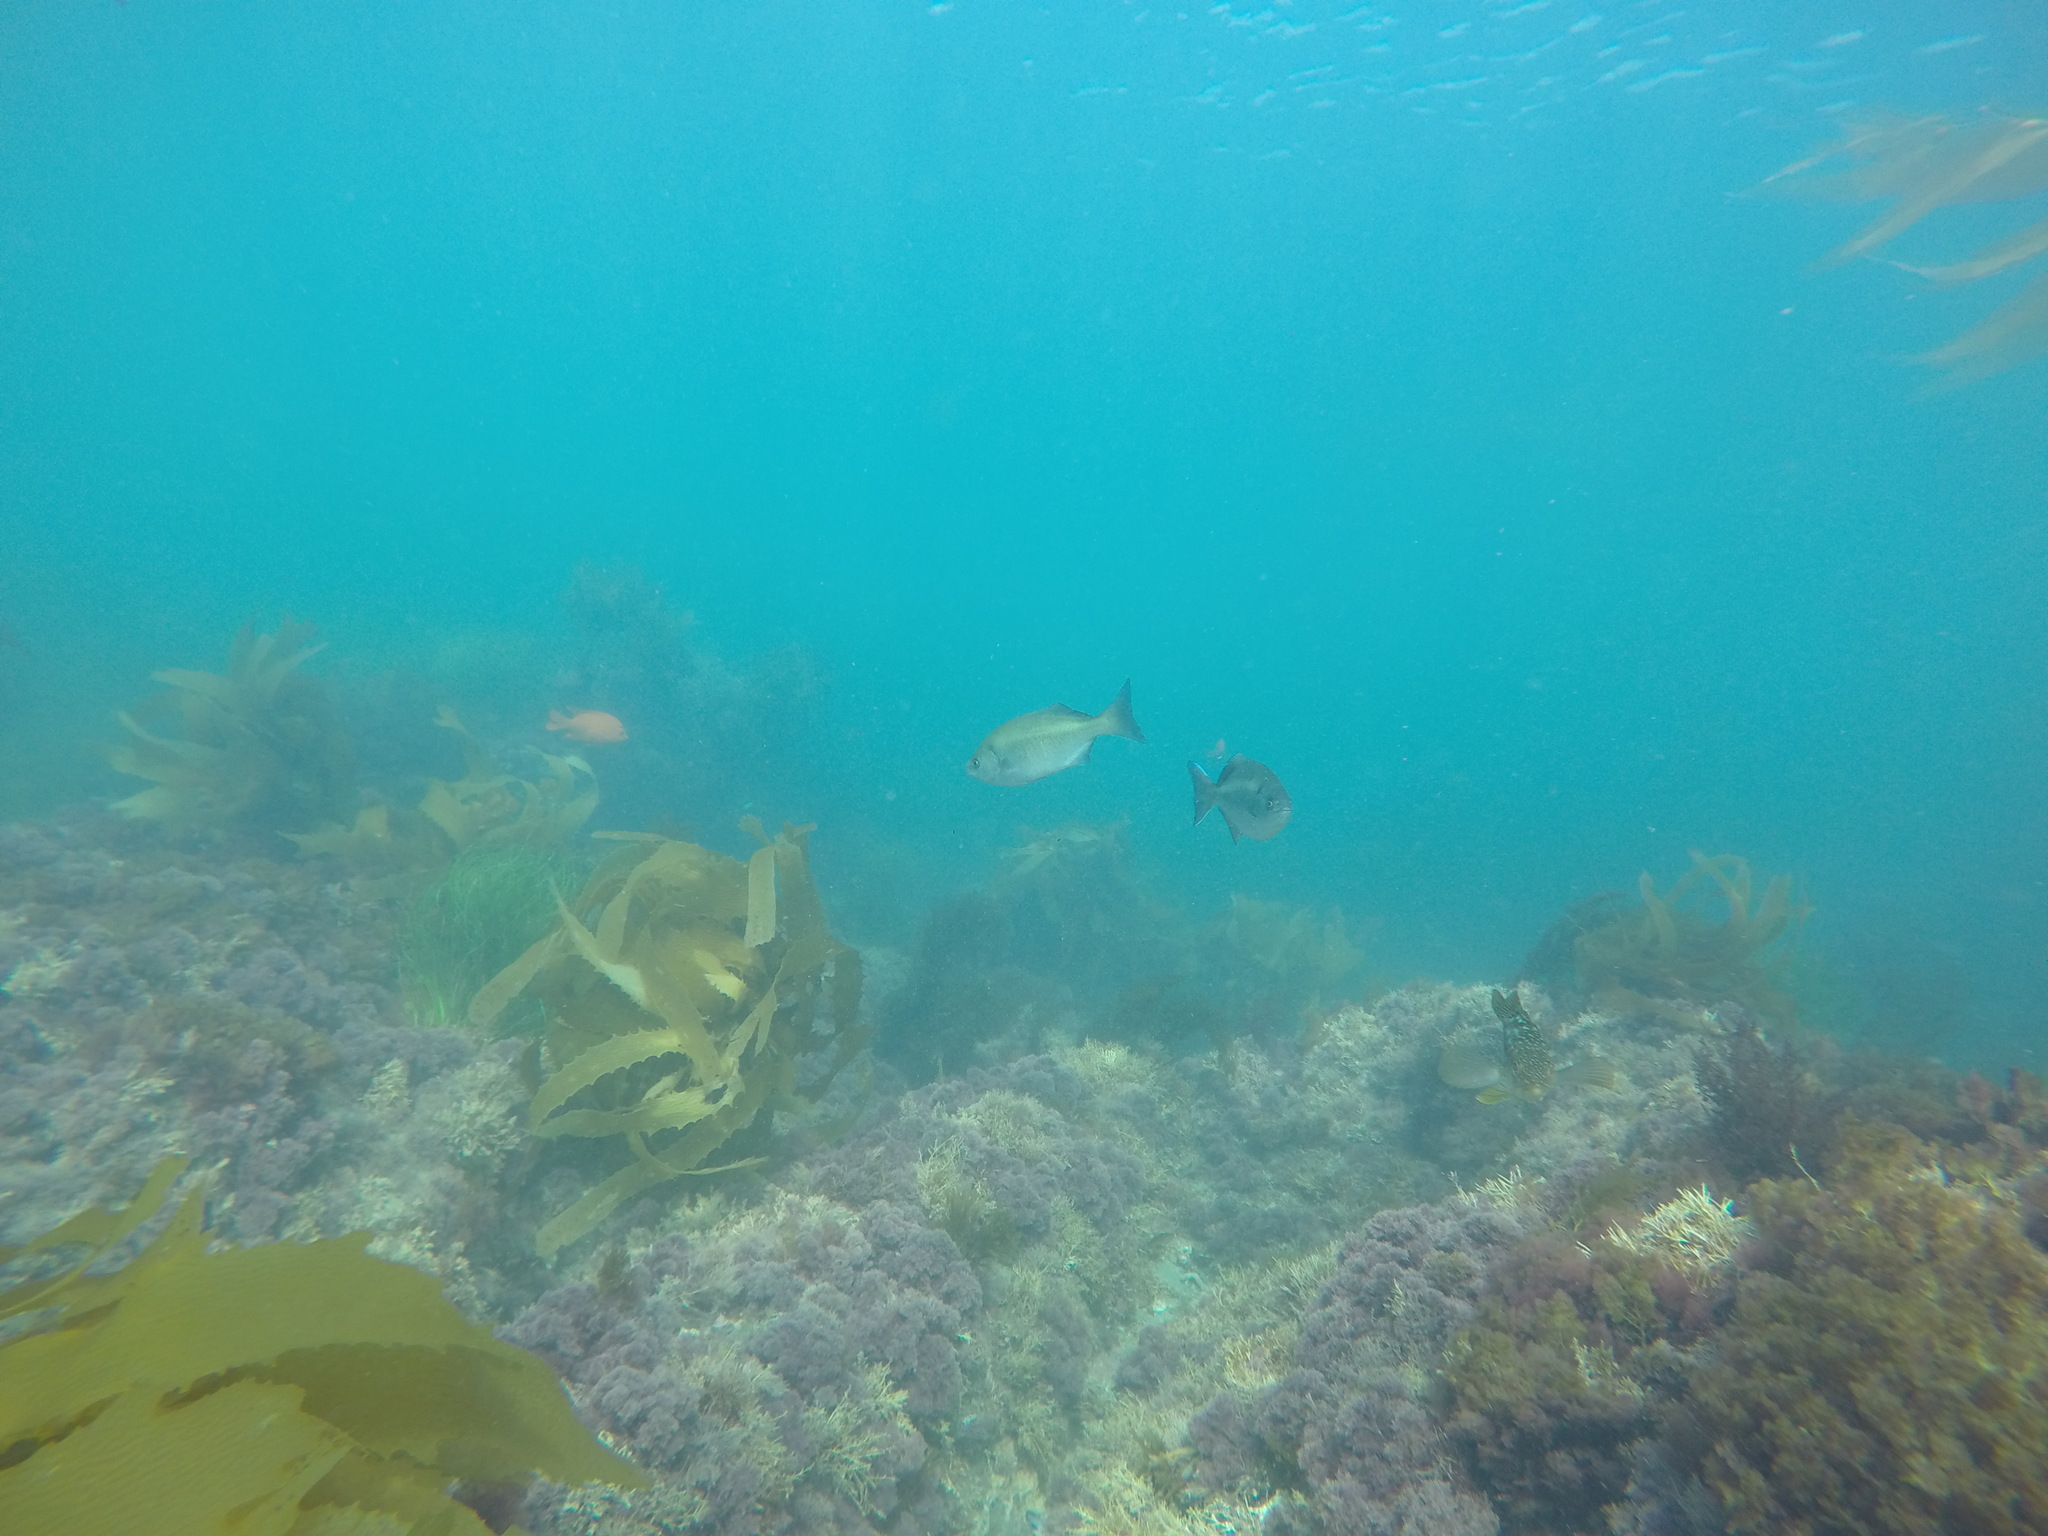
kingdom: Animalia
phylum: Chordata
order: Perciformes
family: Kyphosidae
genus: Medialuna
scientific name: Medialuna californiensis
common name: Halfmoon
